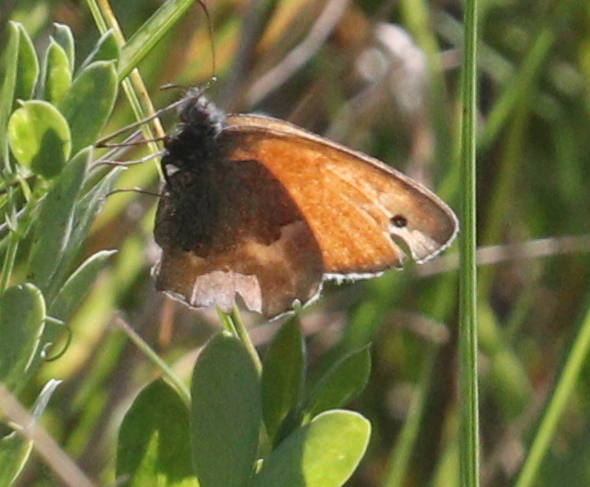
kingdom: Animalia
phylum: Arthropoda
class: Insecta
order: Lepidoptera
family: Nymphalidae
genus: Coenonympha
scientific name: Coenonympha pamphilus
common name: Small heath
